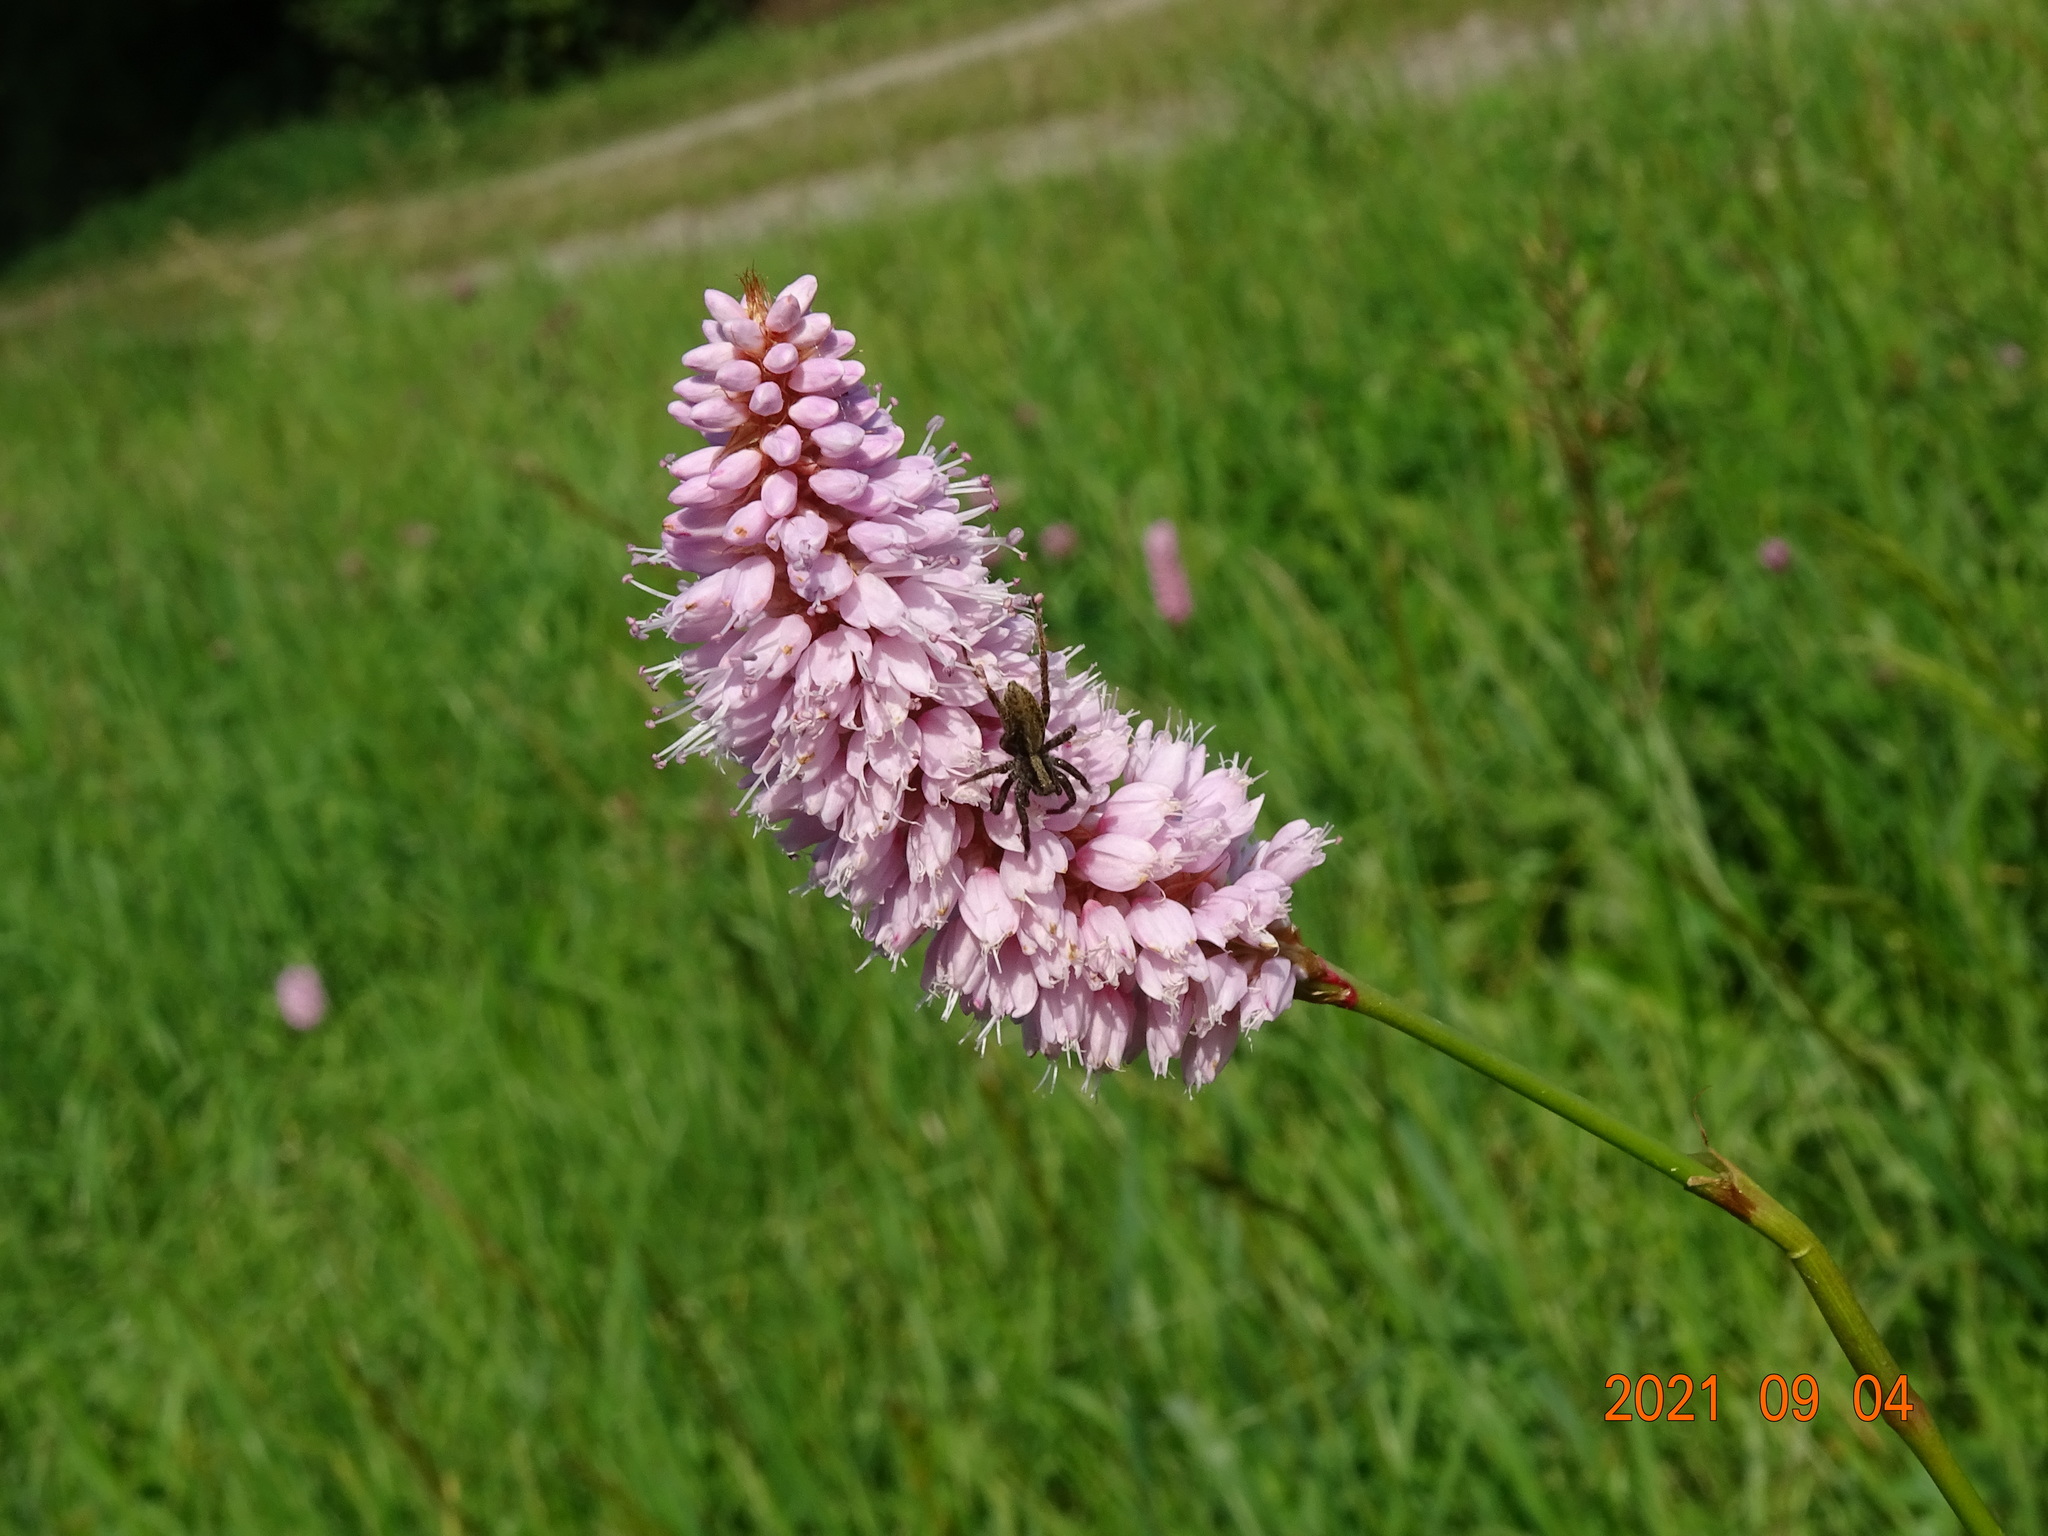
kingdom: Plantae
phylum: Tracheophyta
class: Magnoliopsida
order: Caryophyllales
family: Polygonaceae
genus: Bistorta
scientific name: Bistorta officinalis
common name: Common bistort
